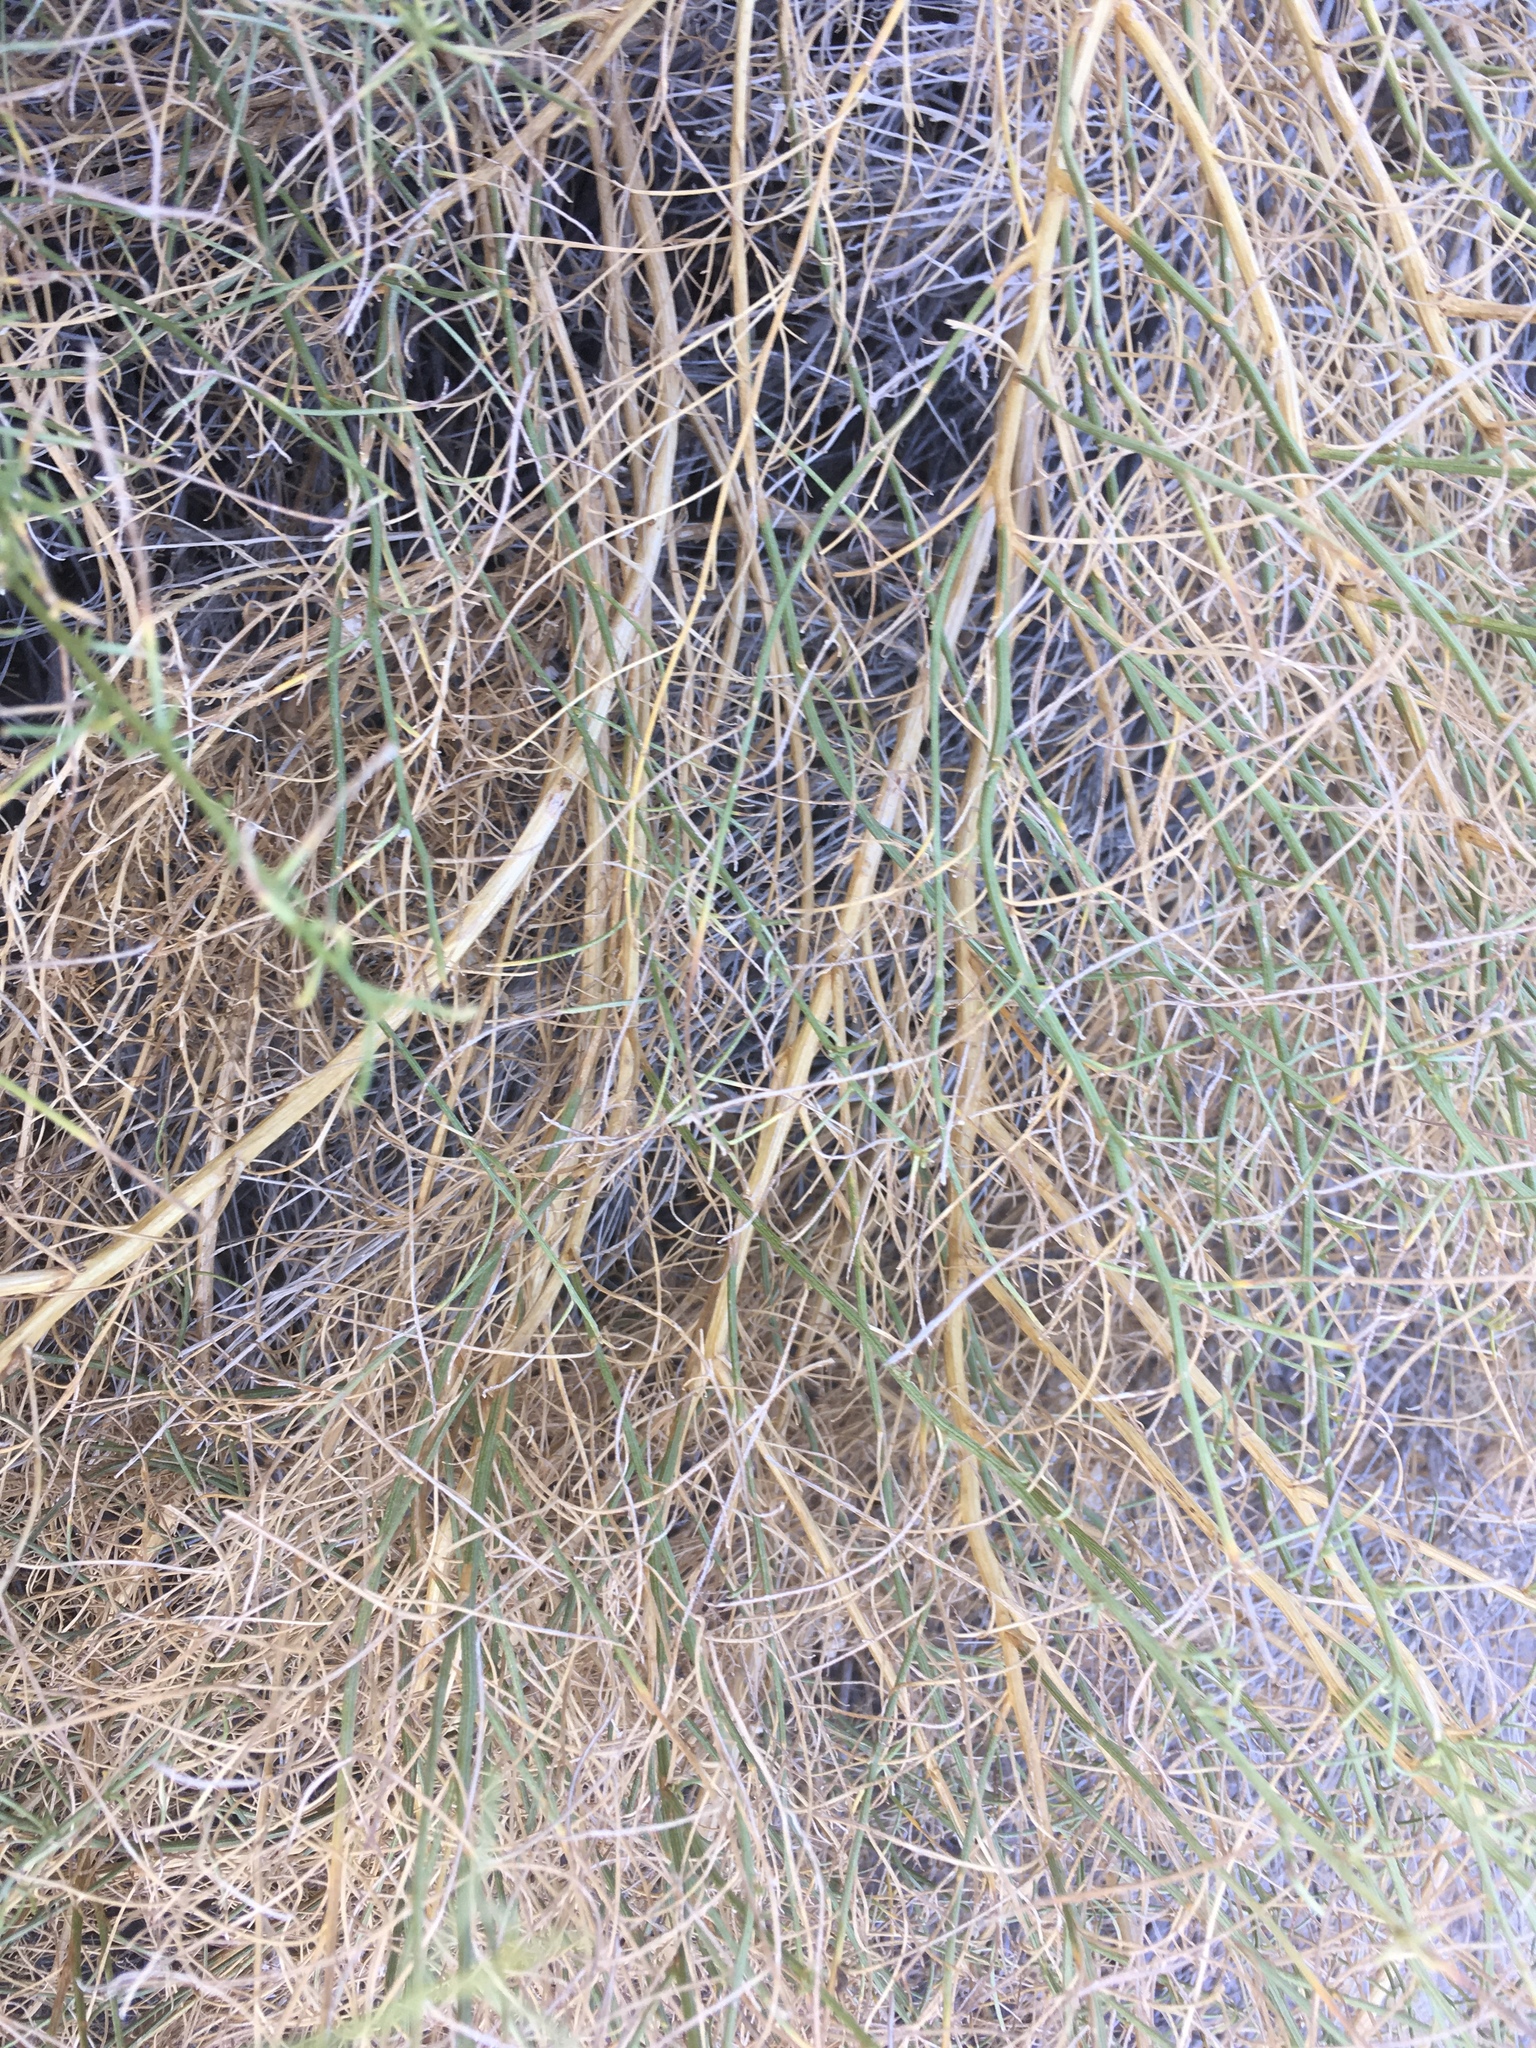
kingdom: Plantae
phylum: Tracheophyta
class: Magnoliopsida
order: Asterales
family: Asteraceae
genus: Ambrosia
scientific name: Ambrosia salsola
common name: Burrobrush
